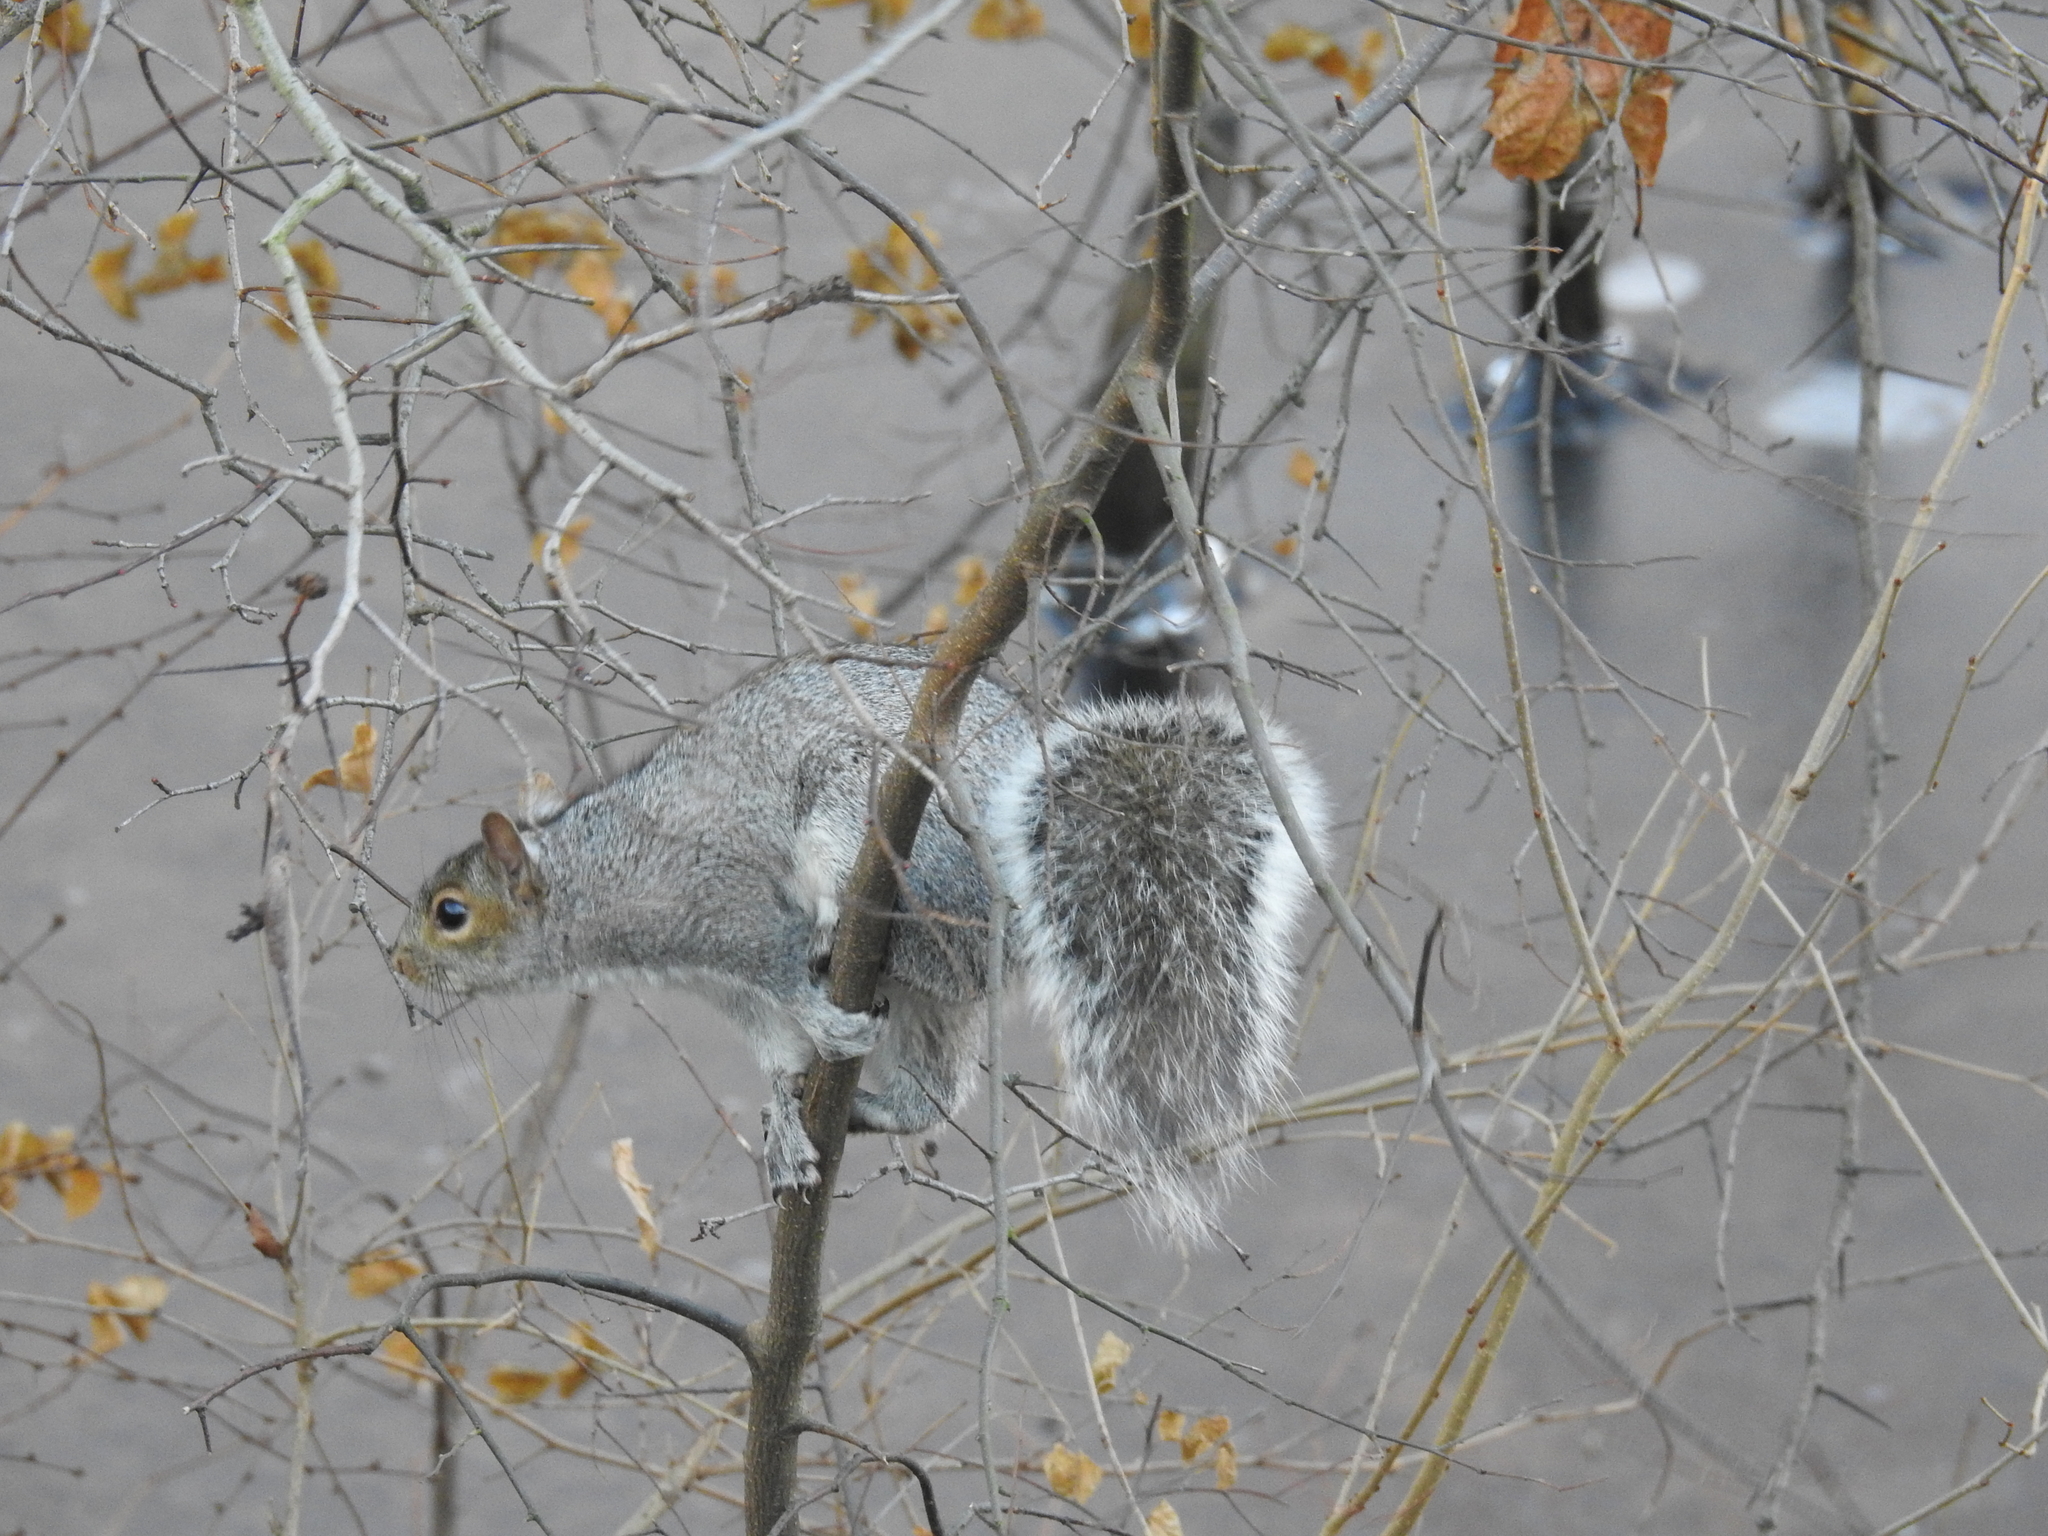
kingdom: Animalia
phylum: Chordata
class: Mammalia
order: Rodentia
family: Sciuridae
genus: Sciurus
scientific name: Sciurus carolinensis
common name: Eastern gray squirrel
